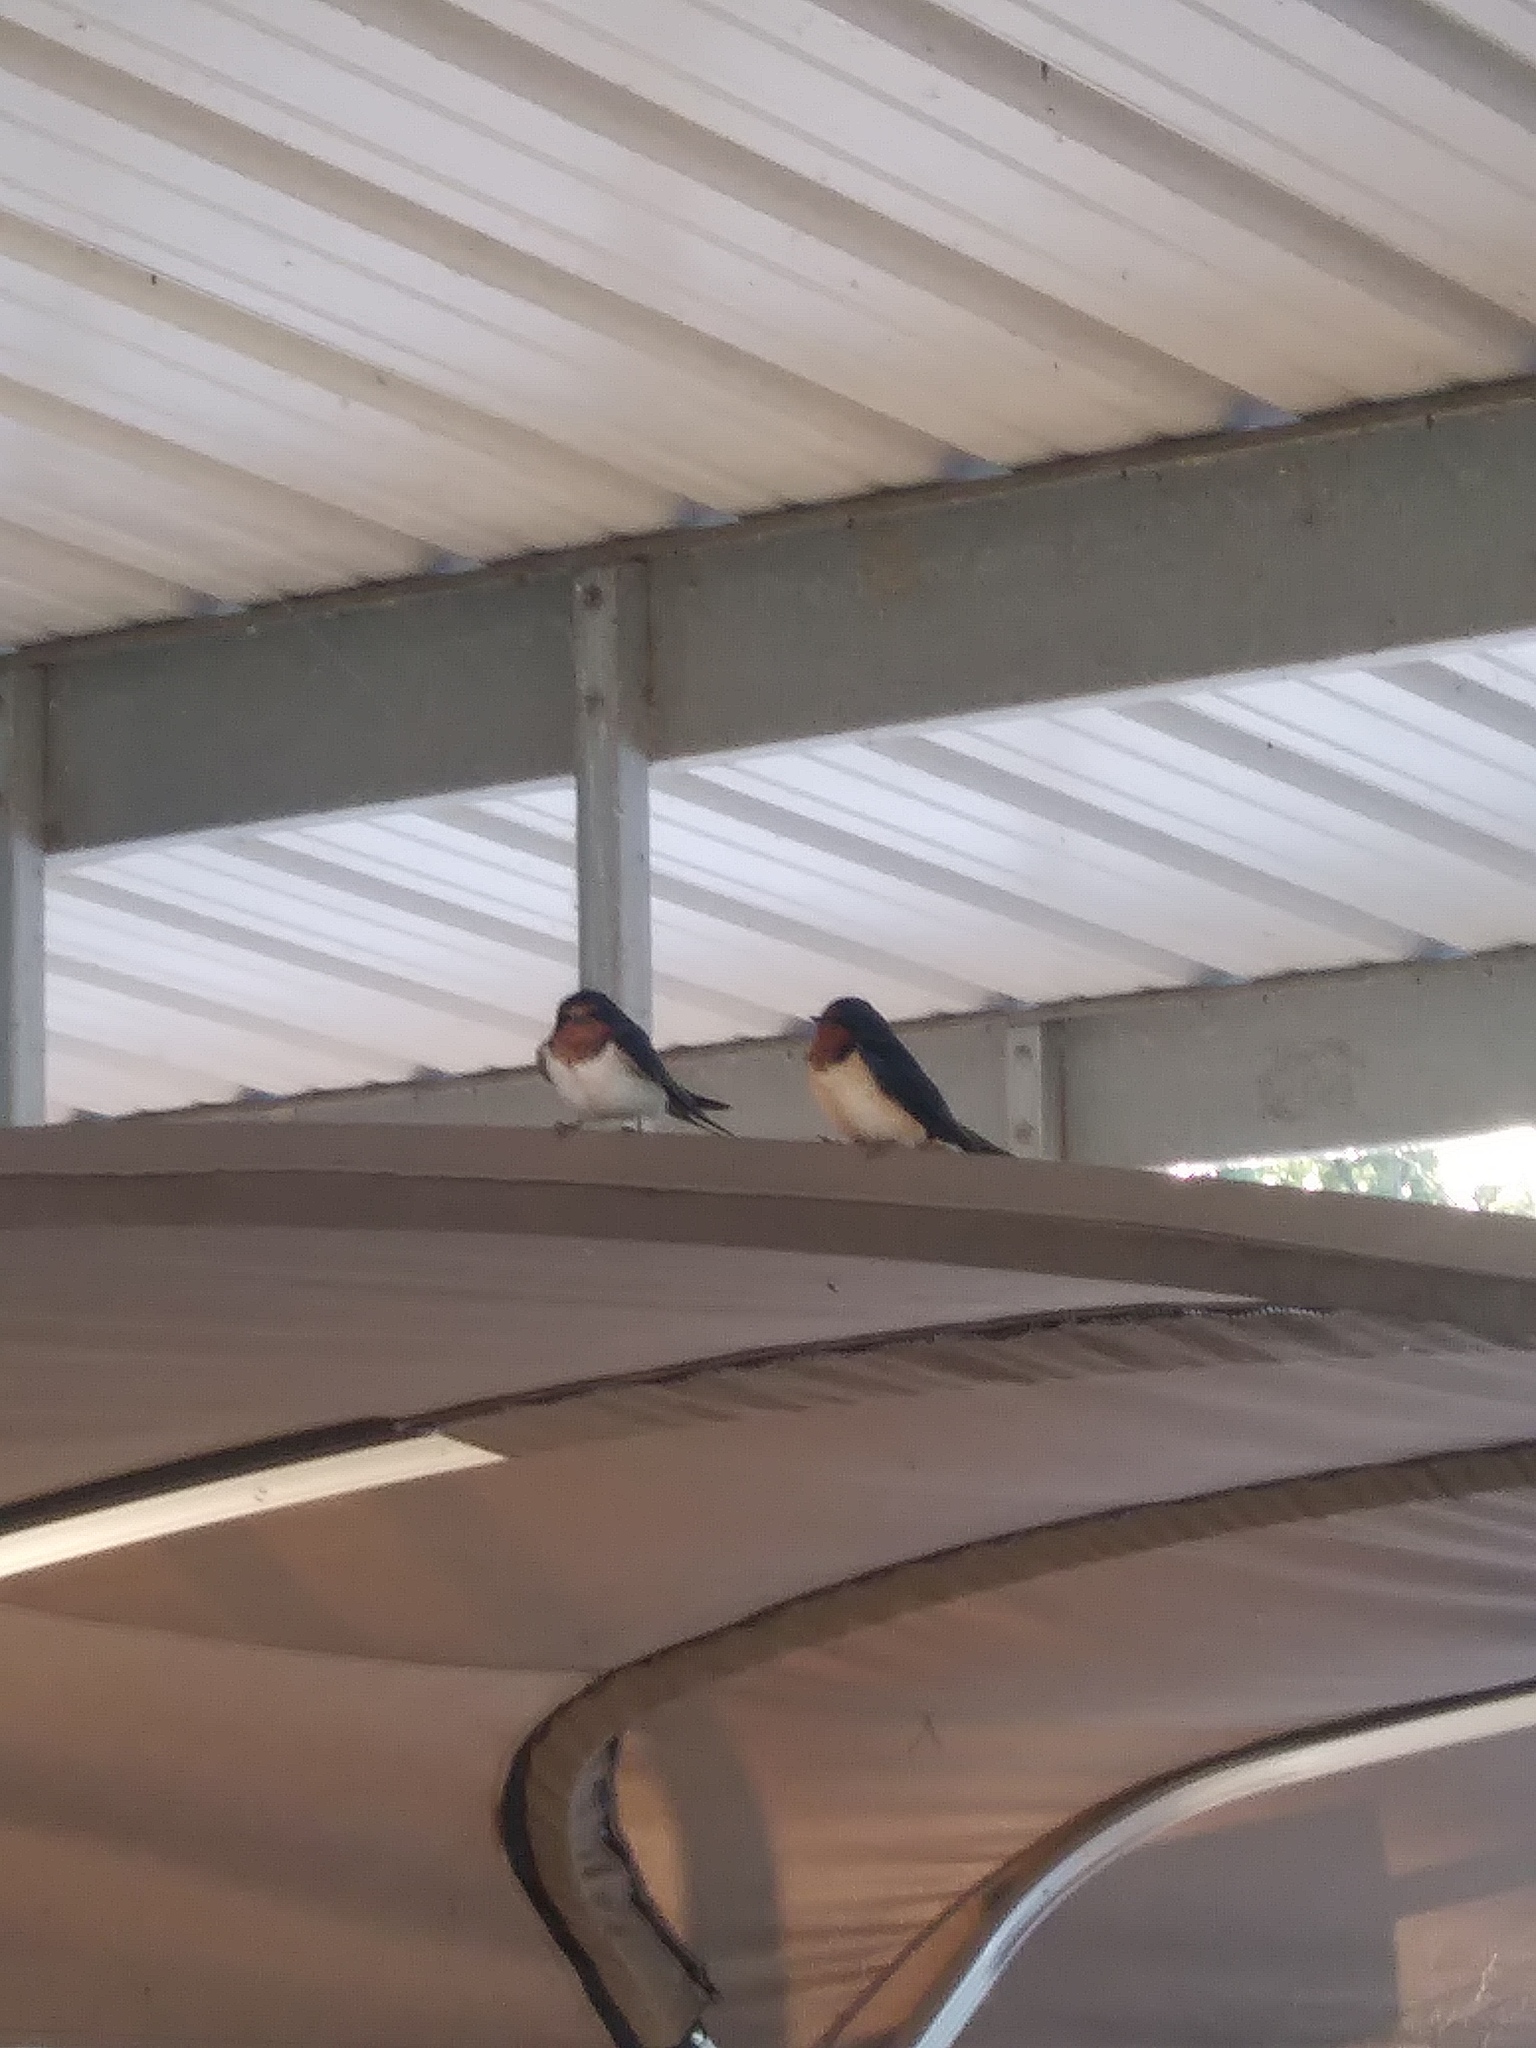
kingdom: Animalia
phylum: Chordata
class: Aves
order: Passeriformes
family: Hirundinidae
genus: Hirundo
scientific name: Hirundo rustica
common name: Barn swallow
